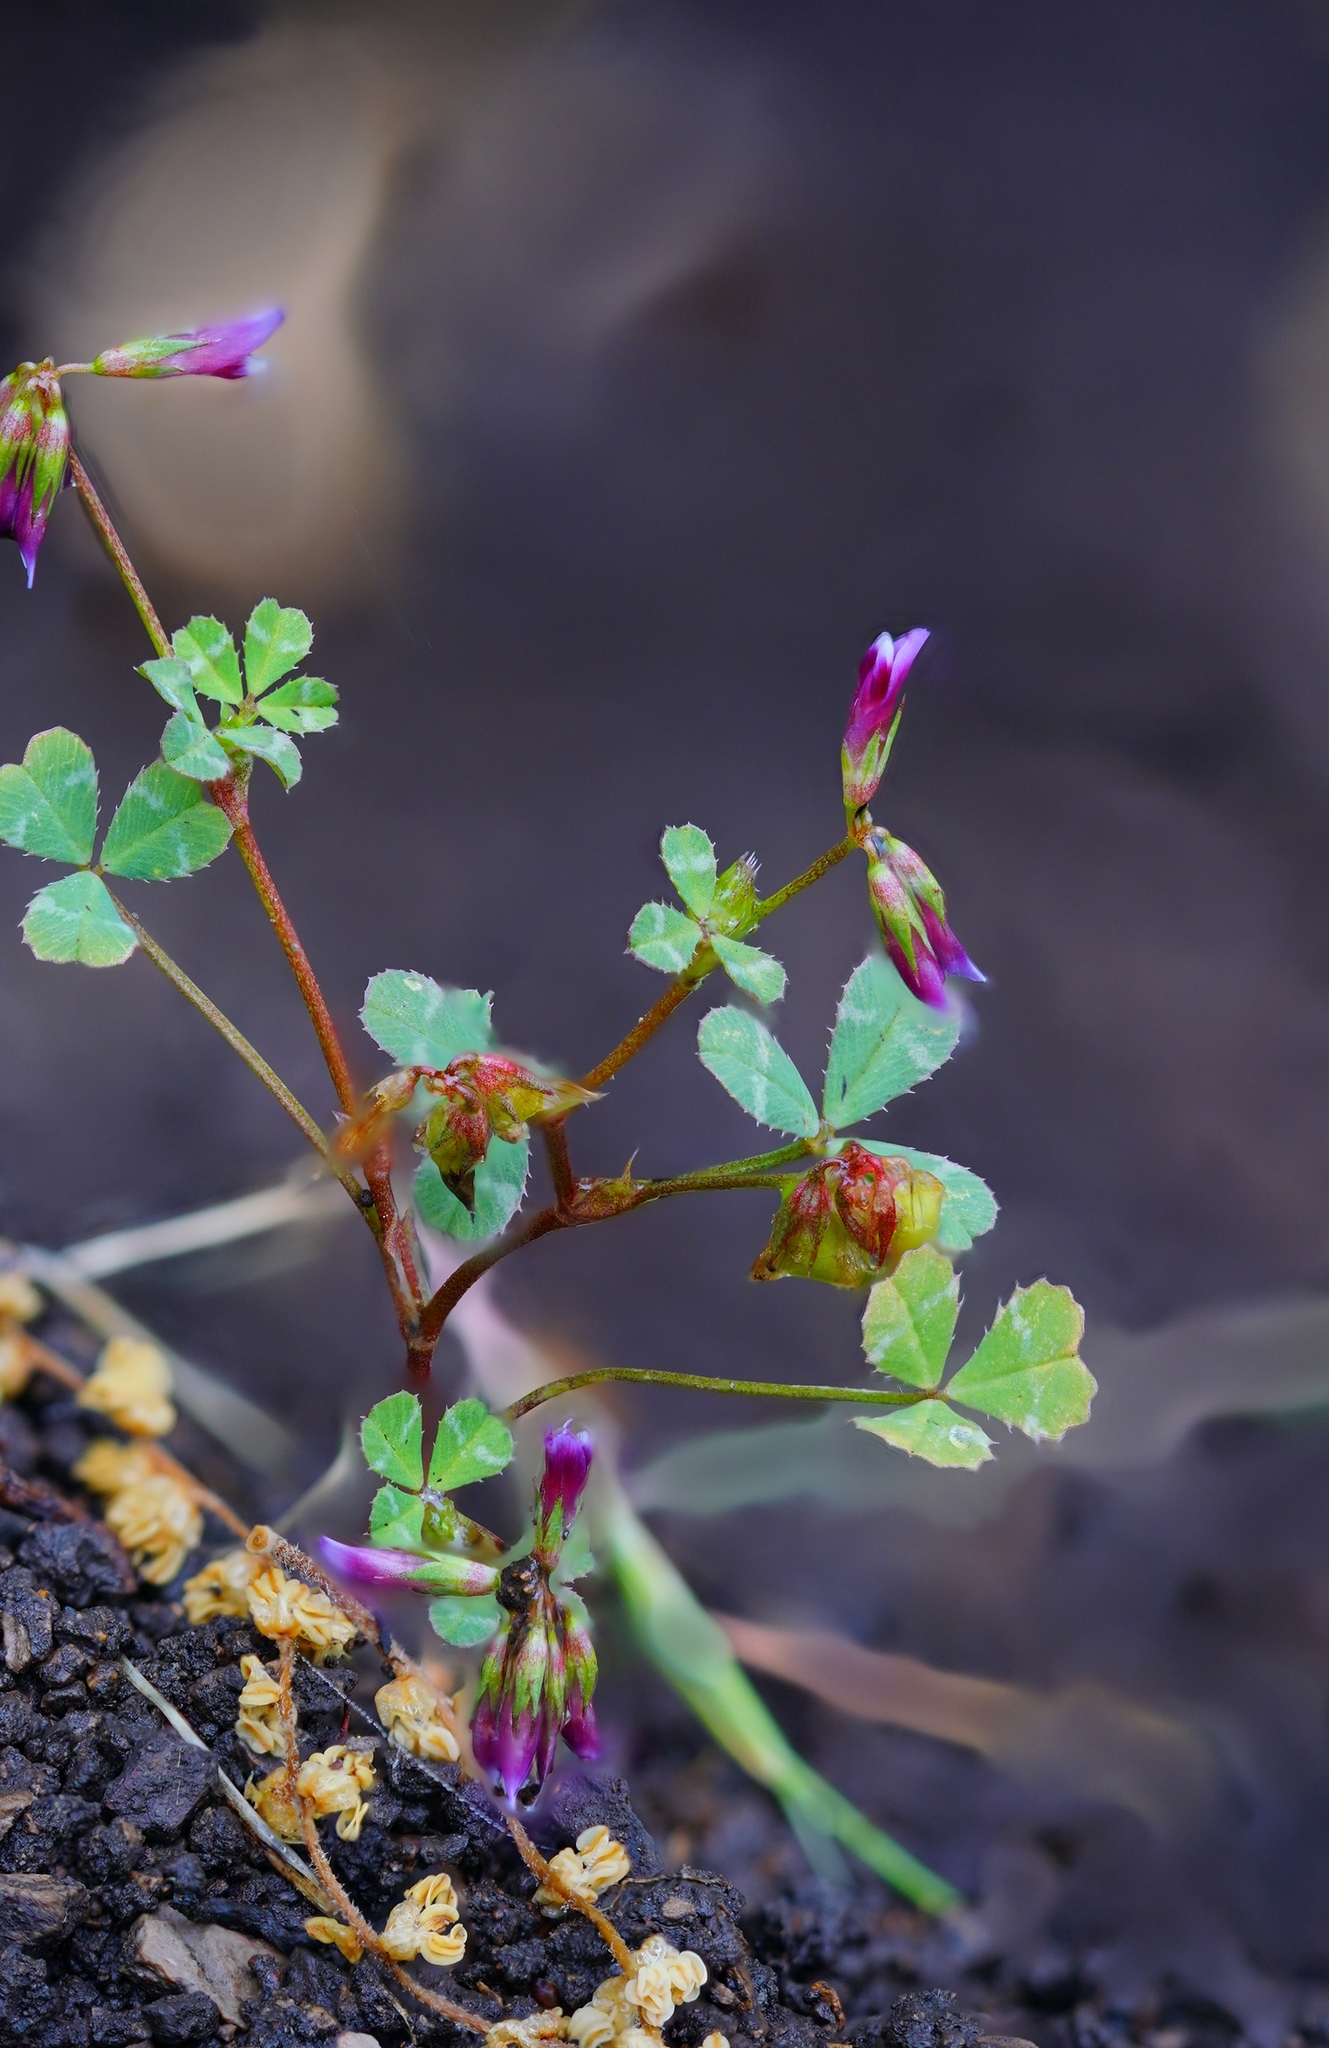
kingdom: Plantae
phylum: Tracheophyta
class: Magnoliopsida
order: Fabales
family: Fabaceae
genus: Trifolium
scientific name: Trifolium gracilentum
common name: Slender clover
